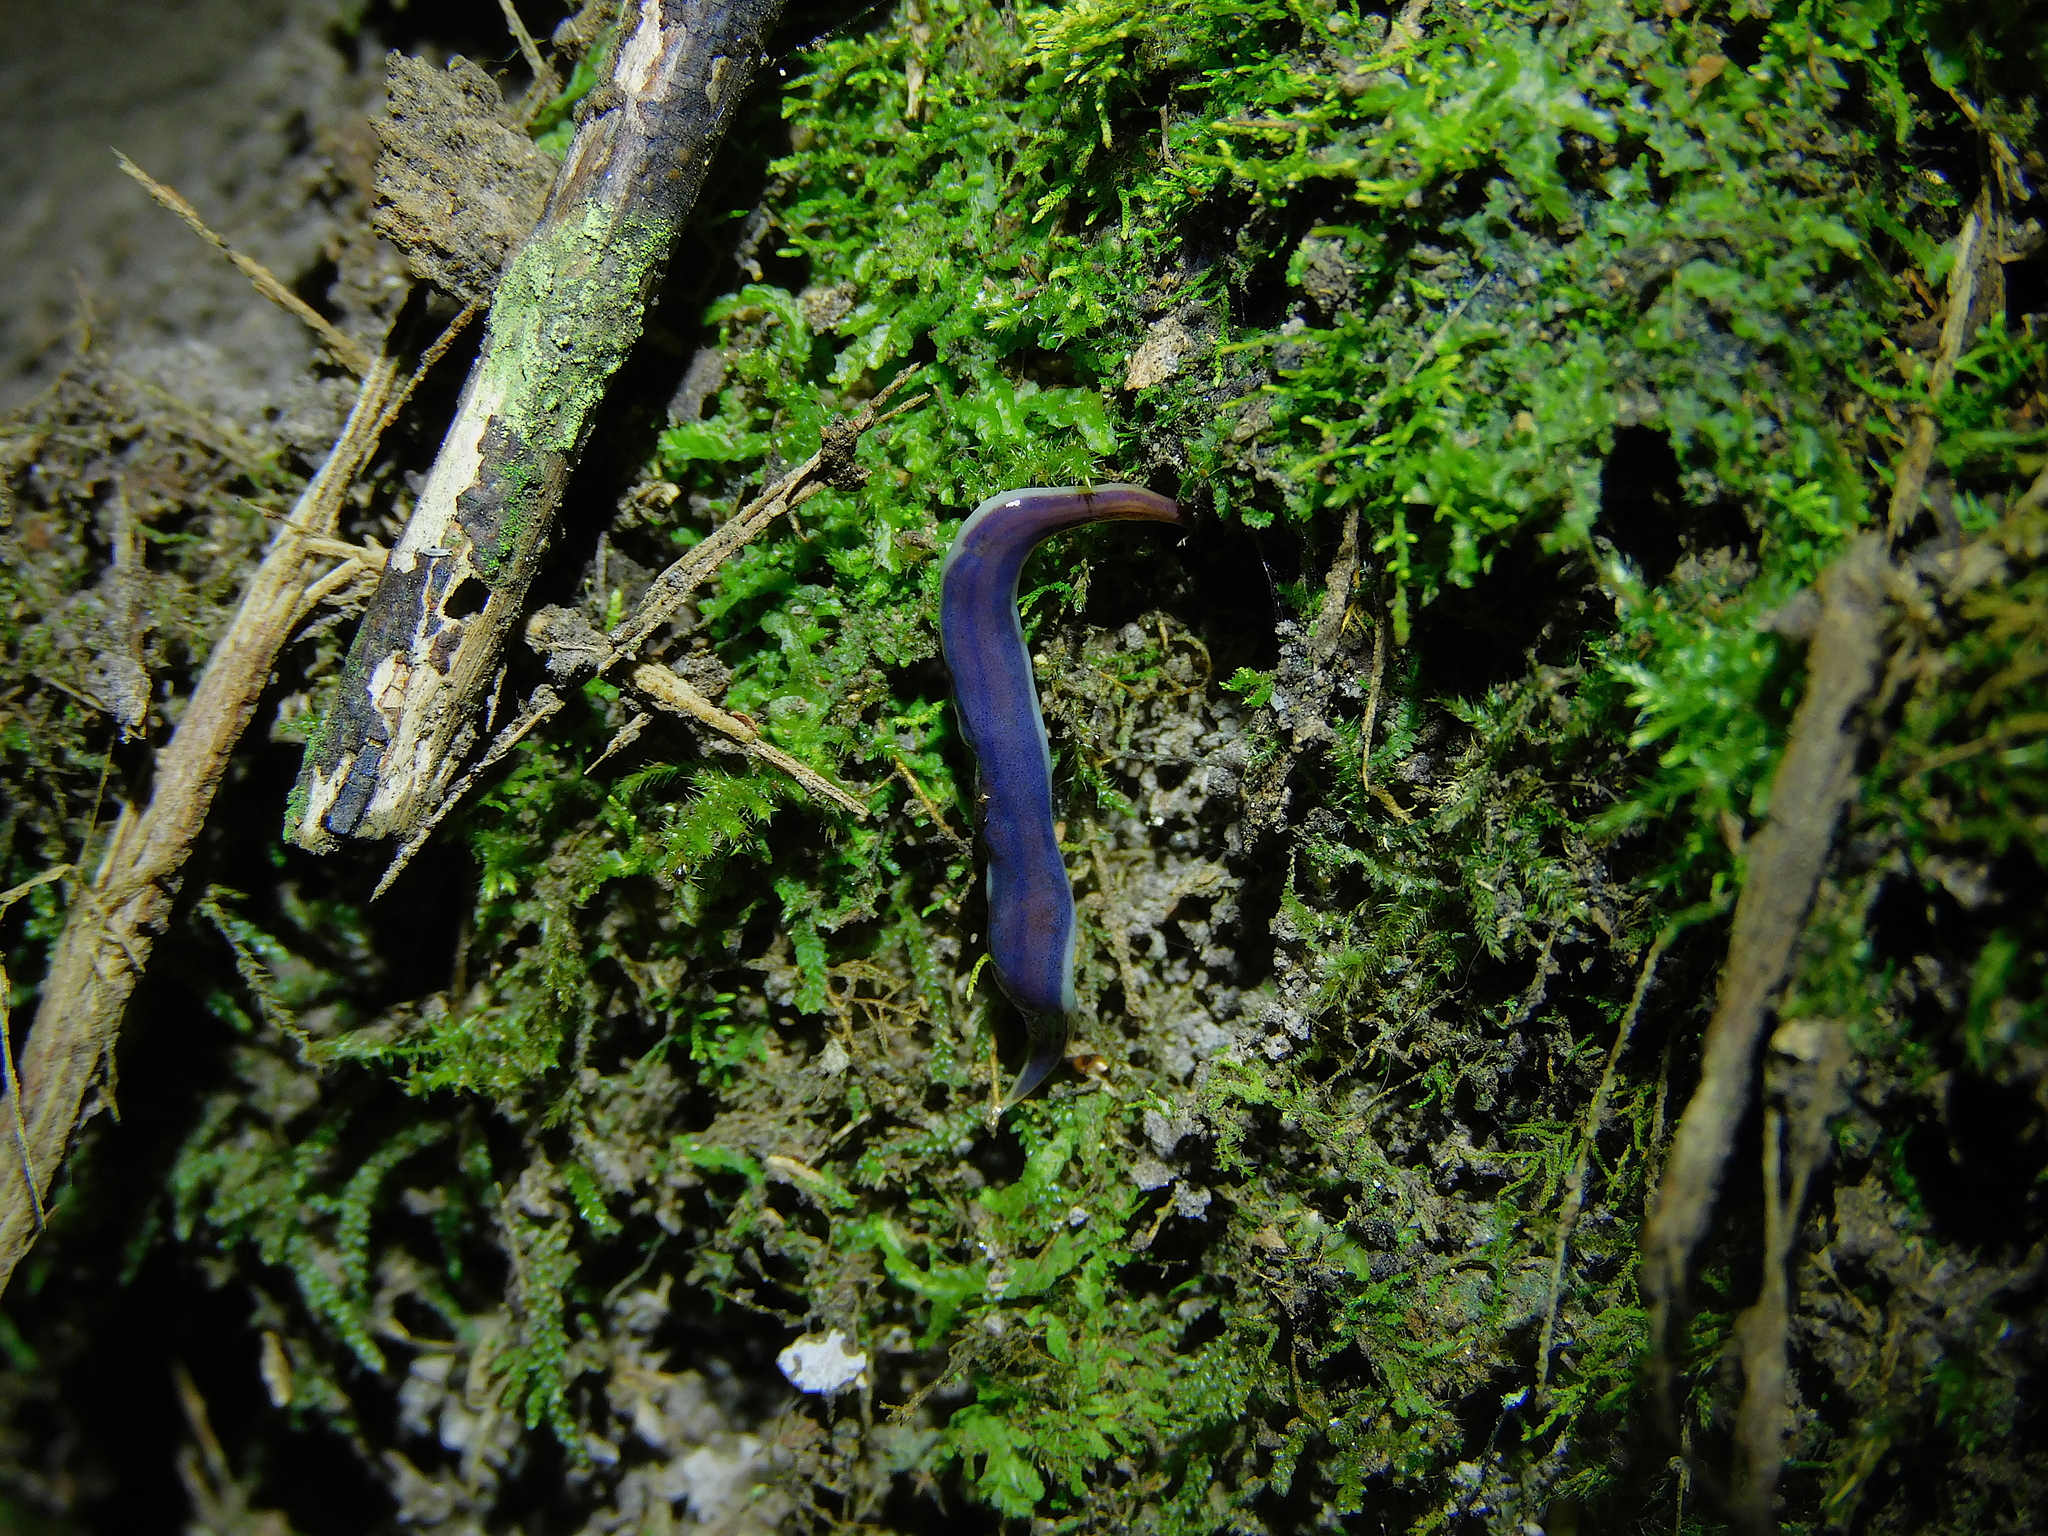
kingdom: Animalia
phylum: Platyhelminthes
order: Tricladida
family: Geoplanidae
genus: Tasmanoplana
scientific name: Tasmanoplana tasmaniana
